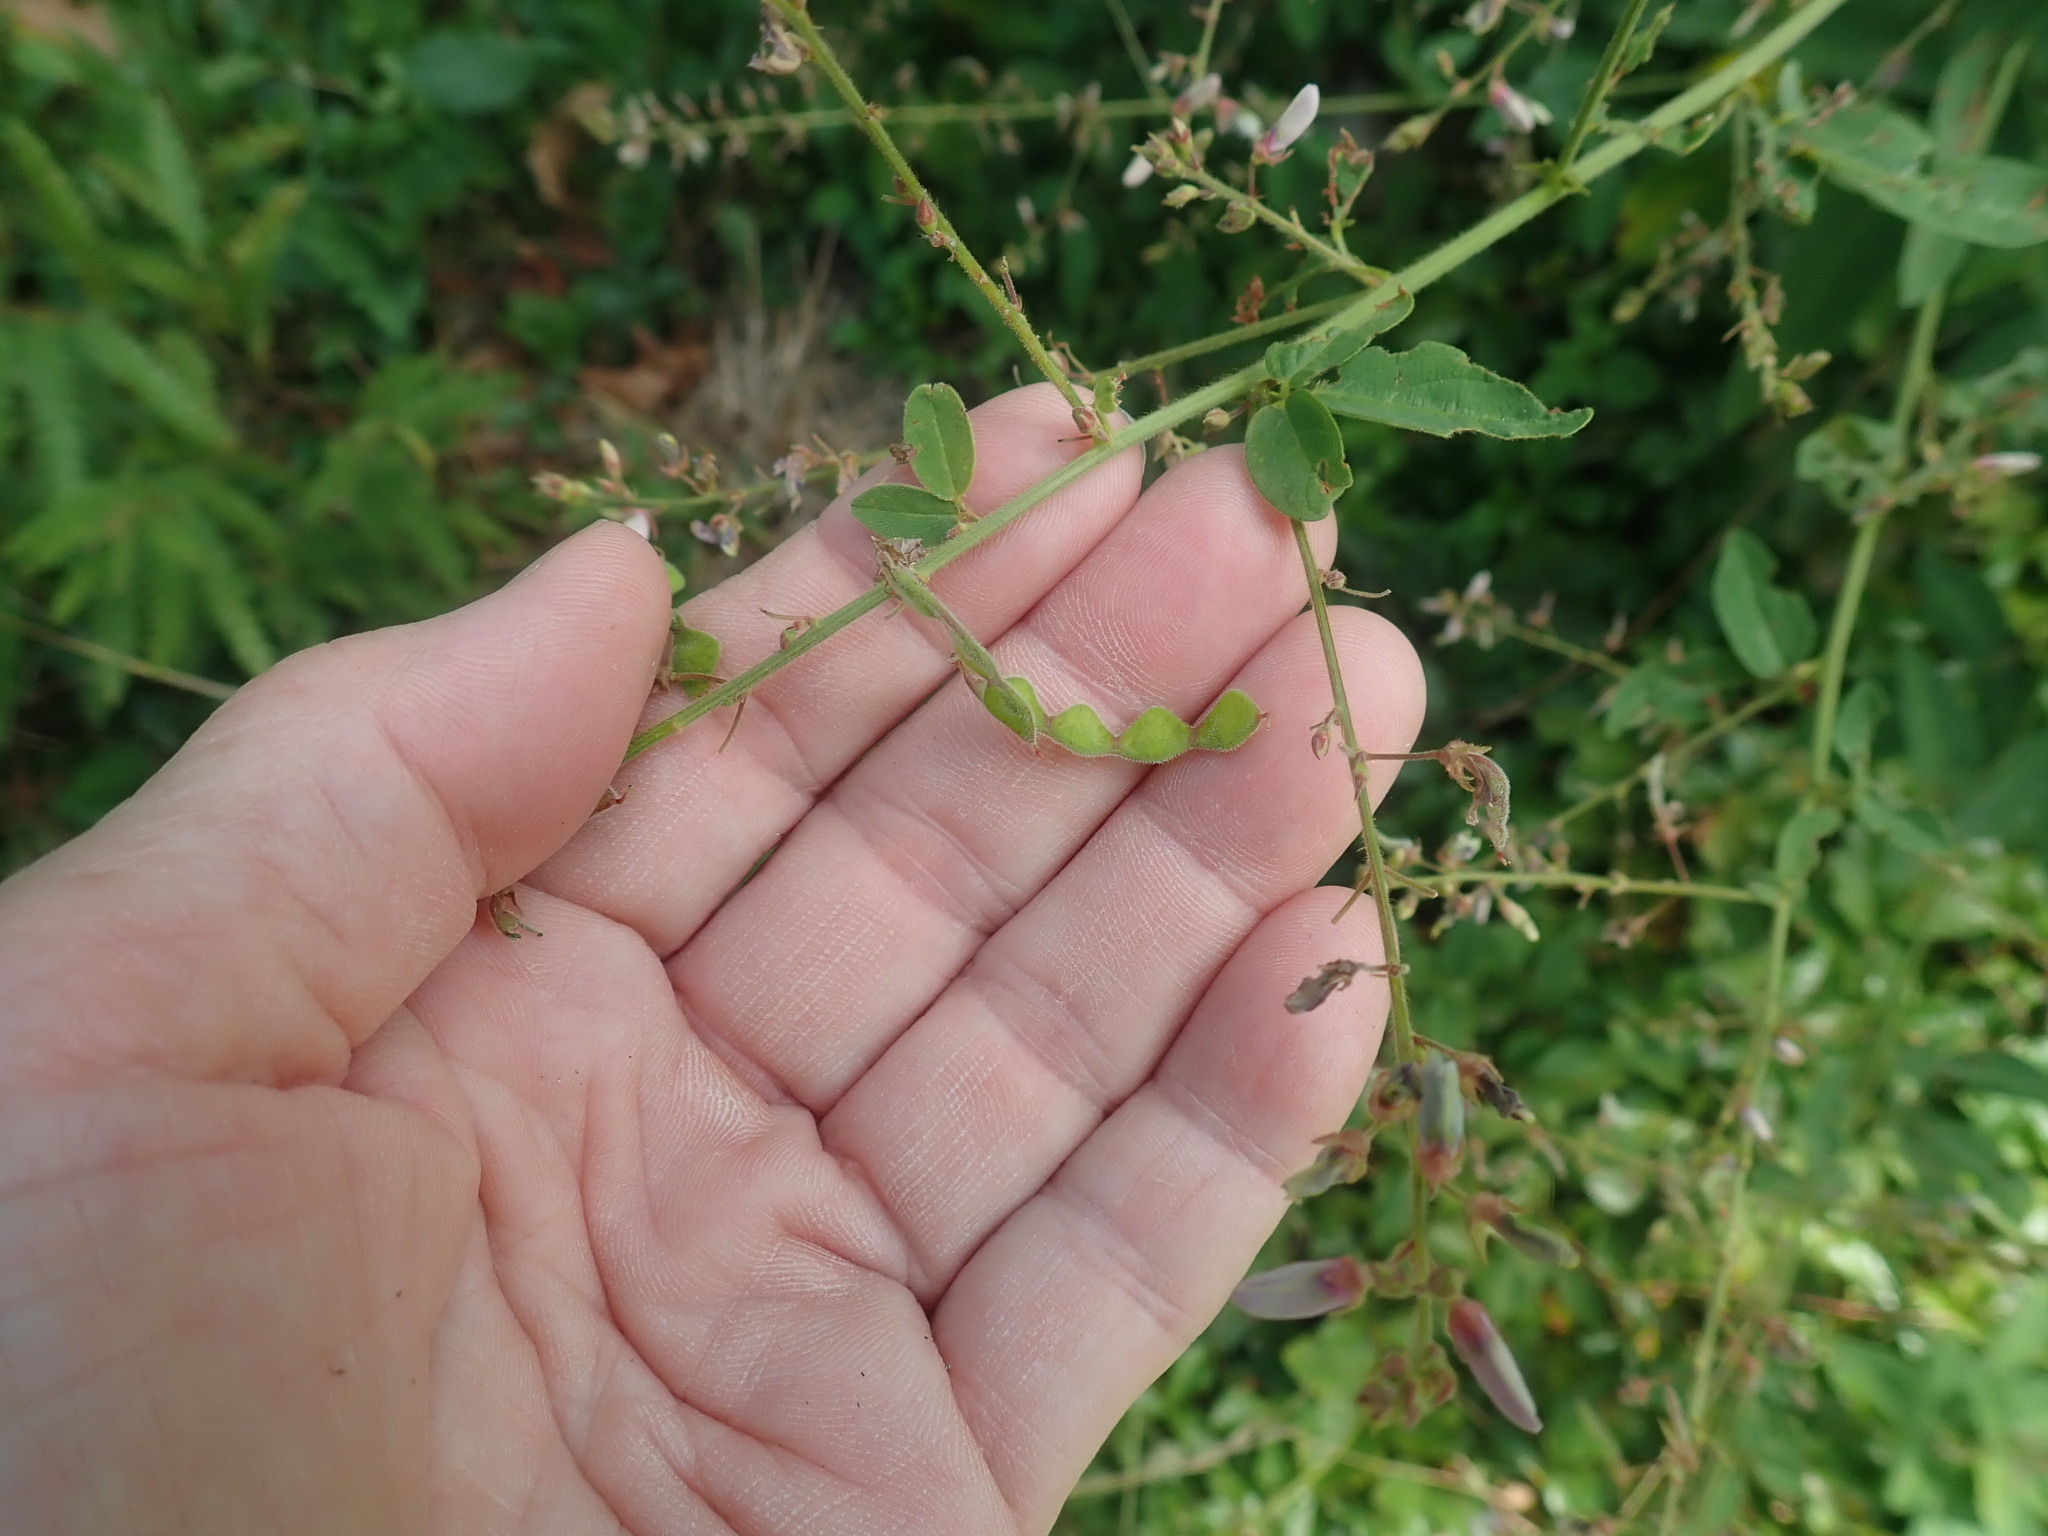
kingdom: Plantae
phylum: Tracheophyta
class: Magnoliopsida
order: Fabales
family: Fabaceae
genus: Desmodium
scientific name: Desmodium
